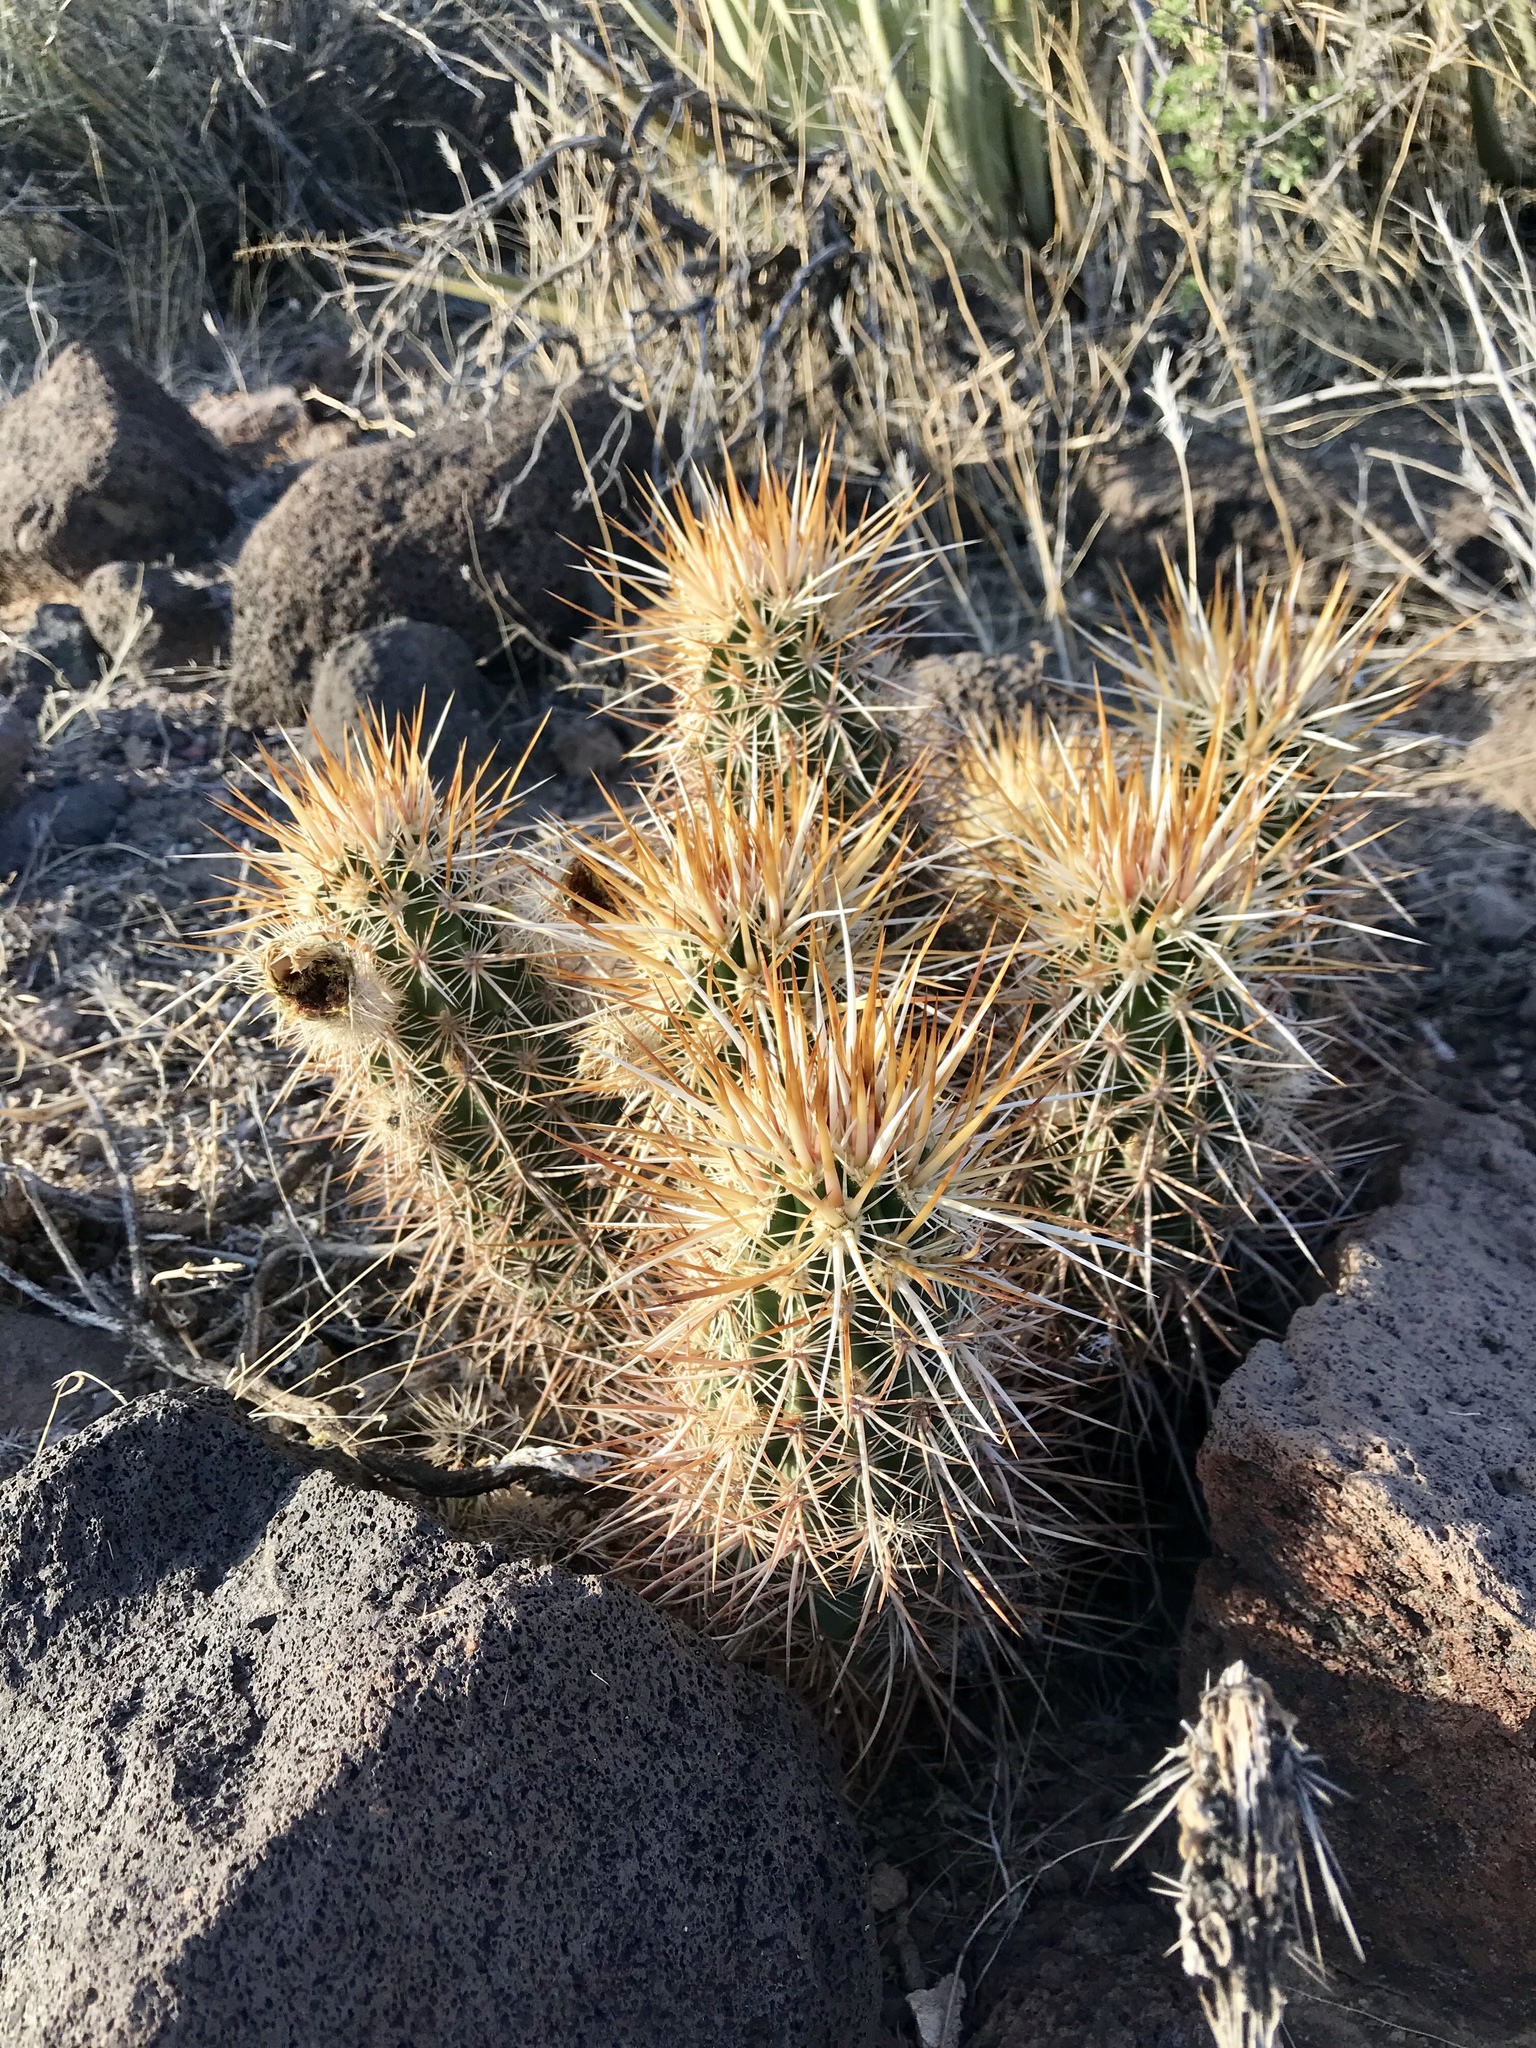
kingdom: Plantae
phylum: Tracheophyta
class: Magnoliopsida
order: Caryophyllales
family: Cactaceae
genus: Echinocereus
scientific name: Echinocereus engelmannii
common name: Engelmann's hedgehog cactus
